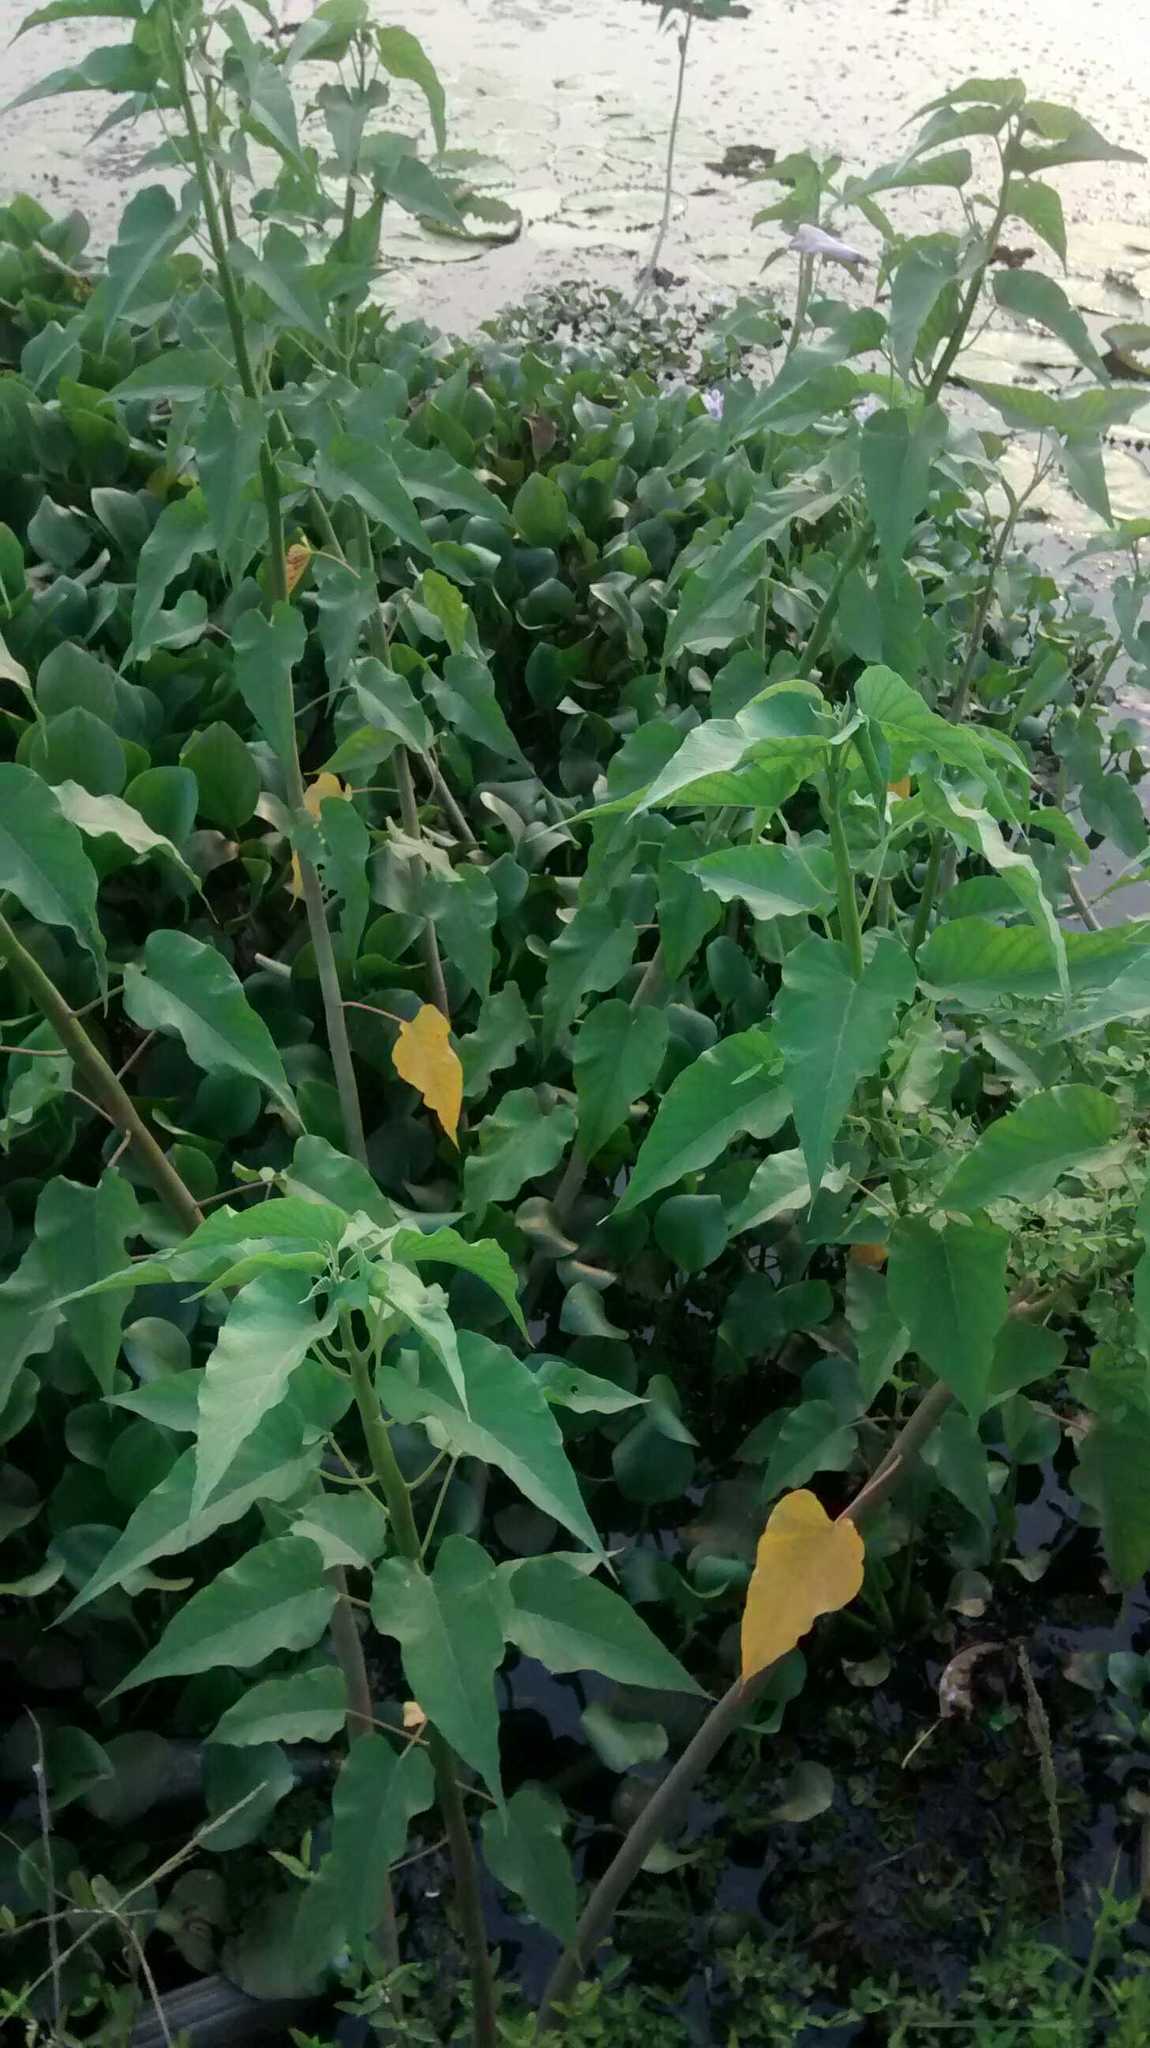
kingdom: Plantae
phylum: Tracheophyta
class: Magnoliopsida
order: Solanales
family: Convolvulaceae
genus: Ipomoea
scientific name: Ipomoea carnea
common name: Morning-glory
